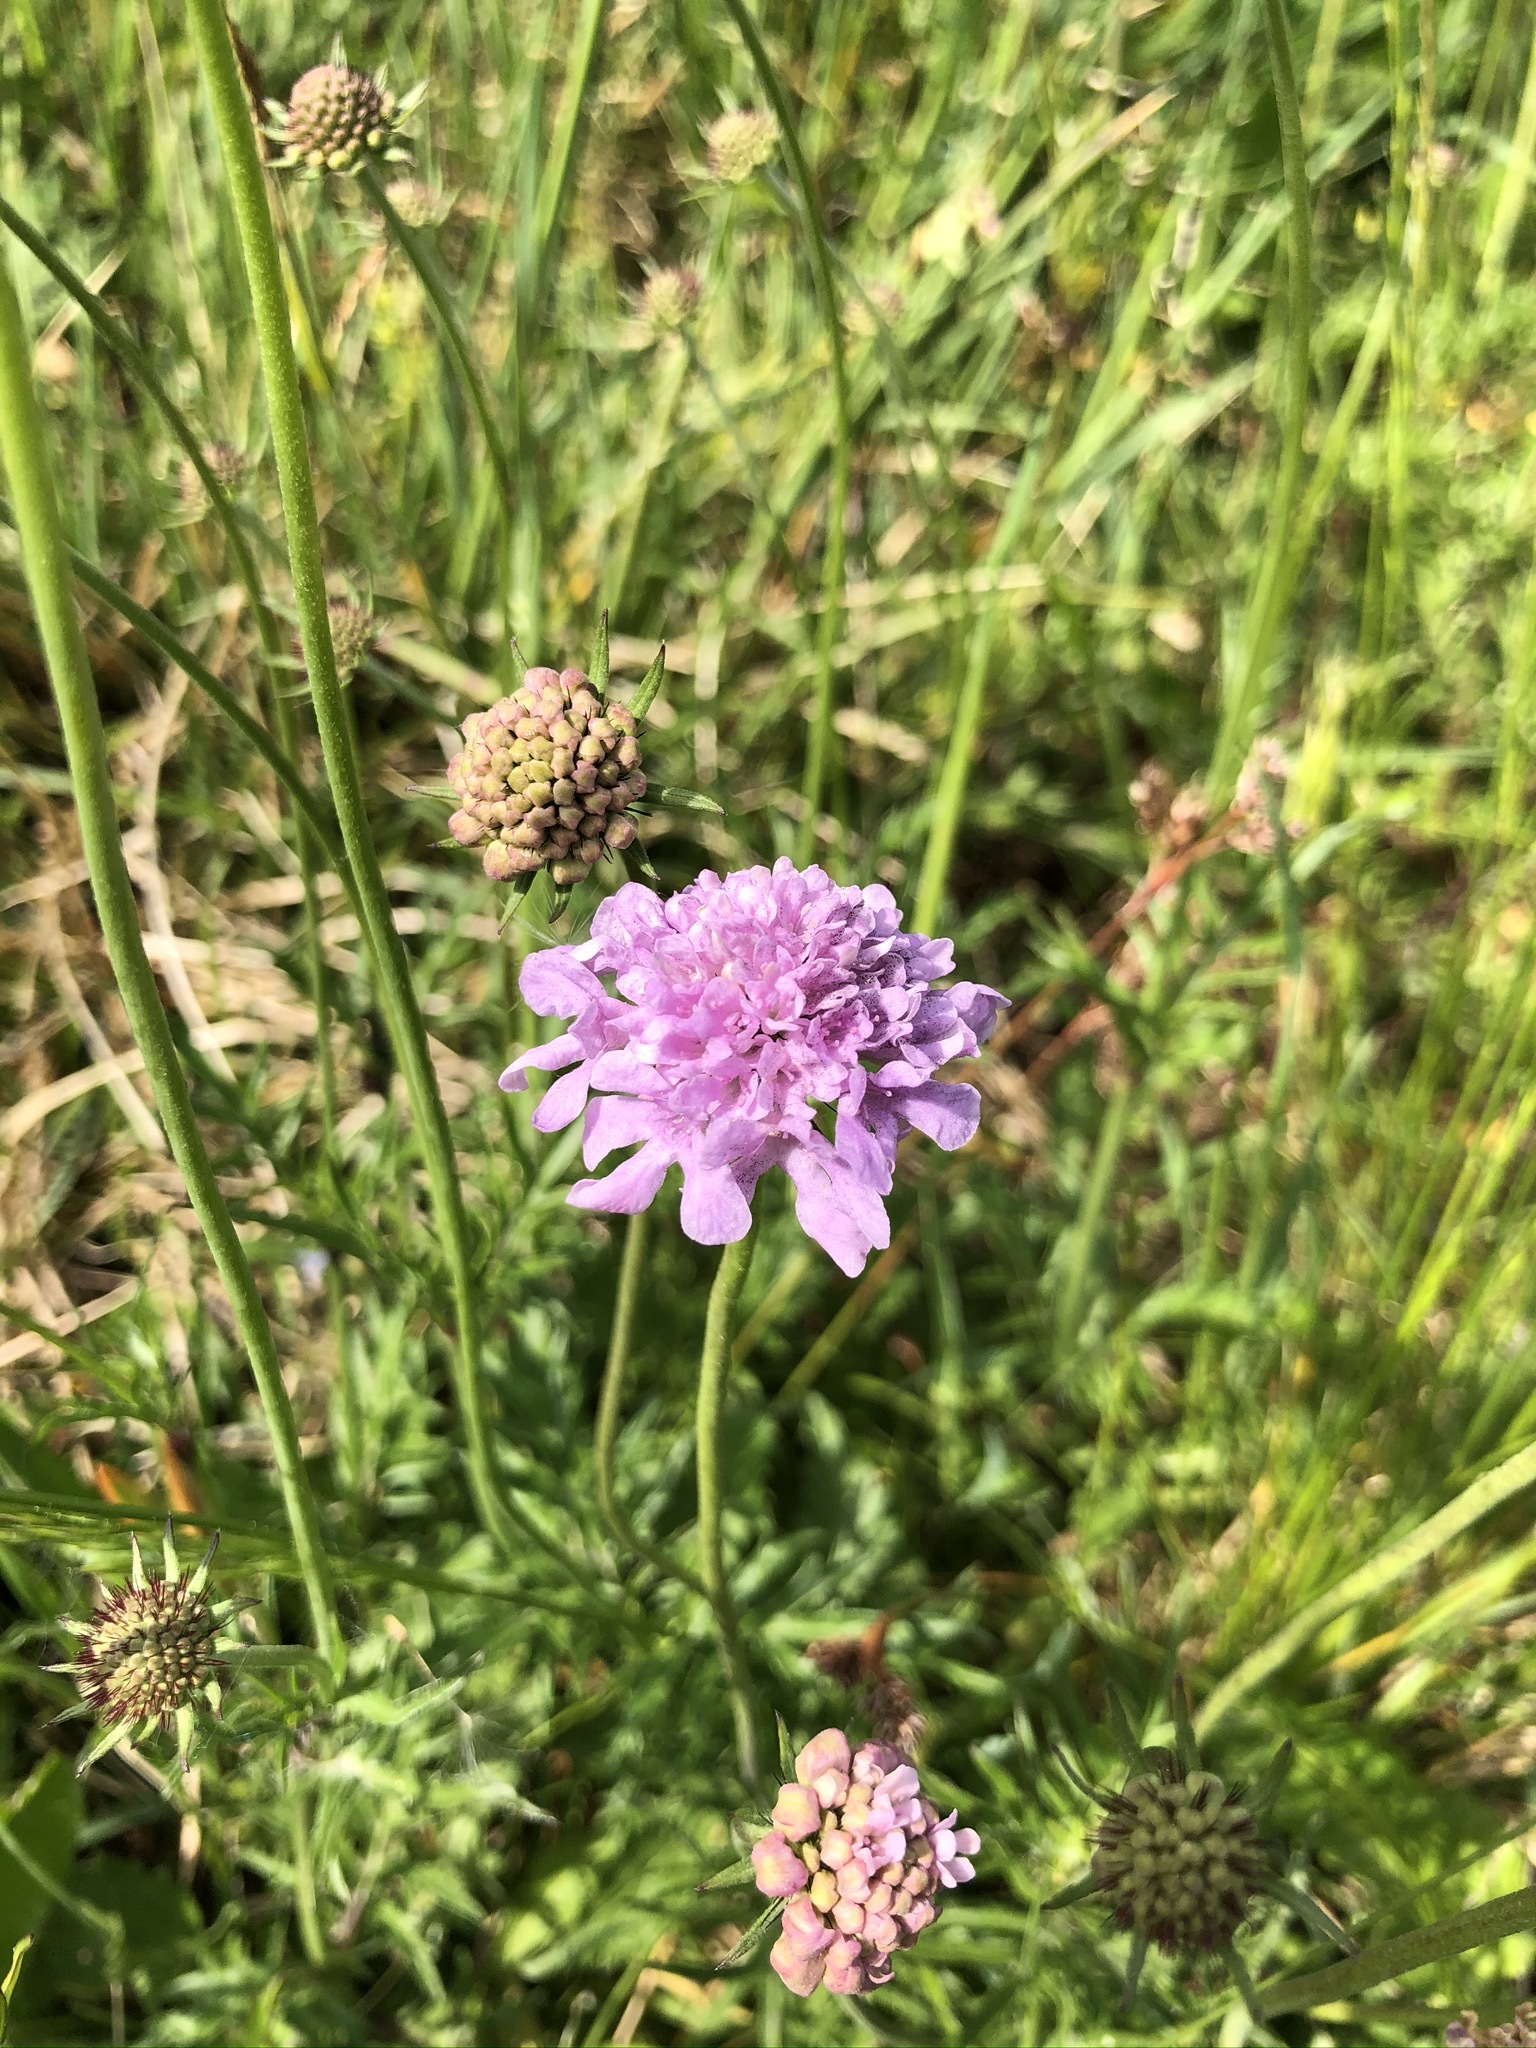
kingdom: Plantae
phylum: Tracheophyta
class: Magnoliopsida
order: Dipsacales
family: Caprifoliaceae
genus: Knautia
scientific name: Knautia arvensis
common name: Field scabiosa
